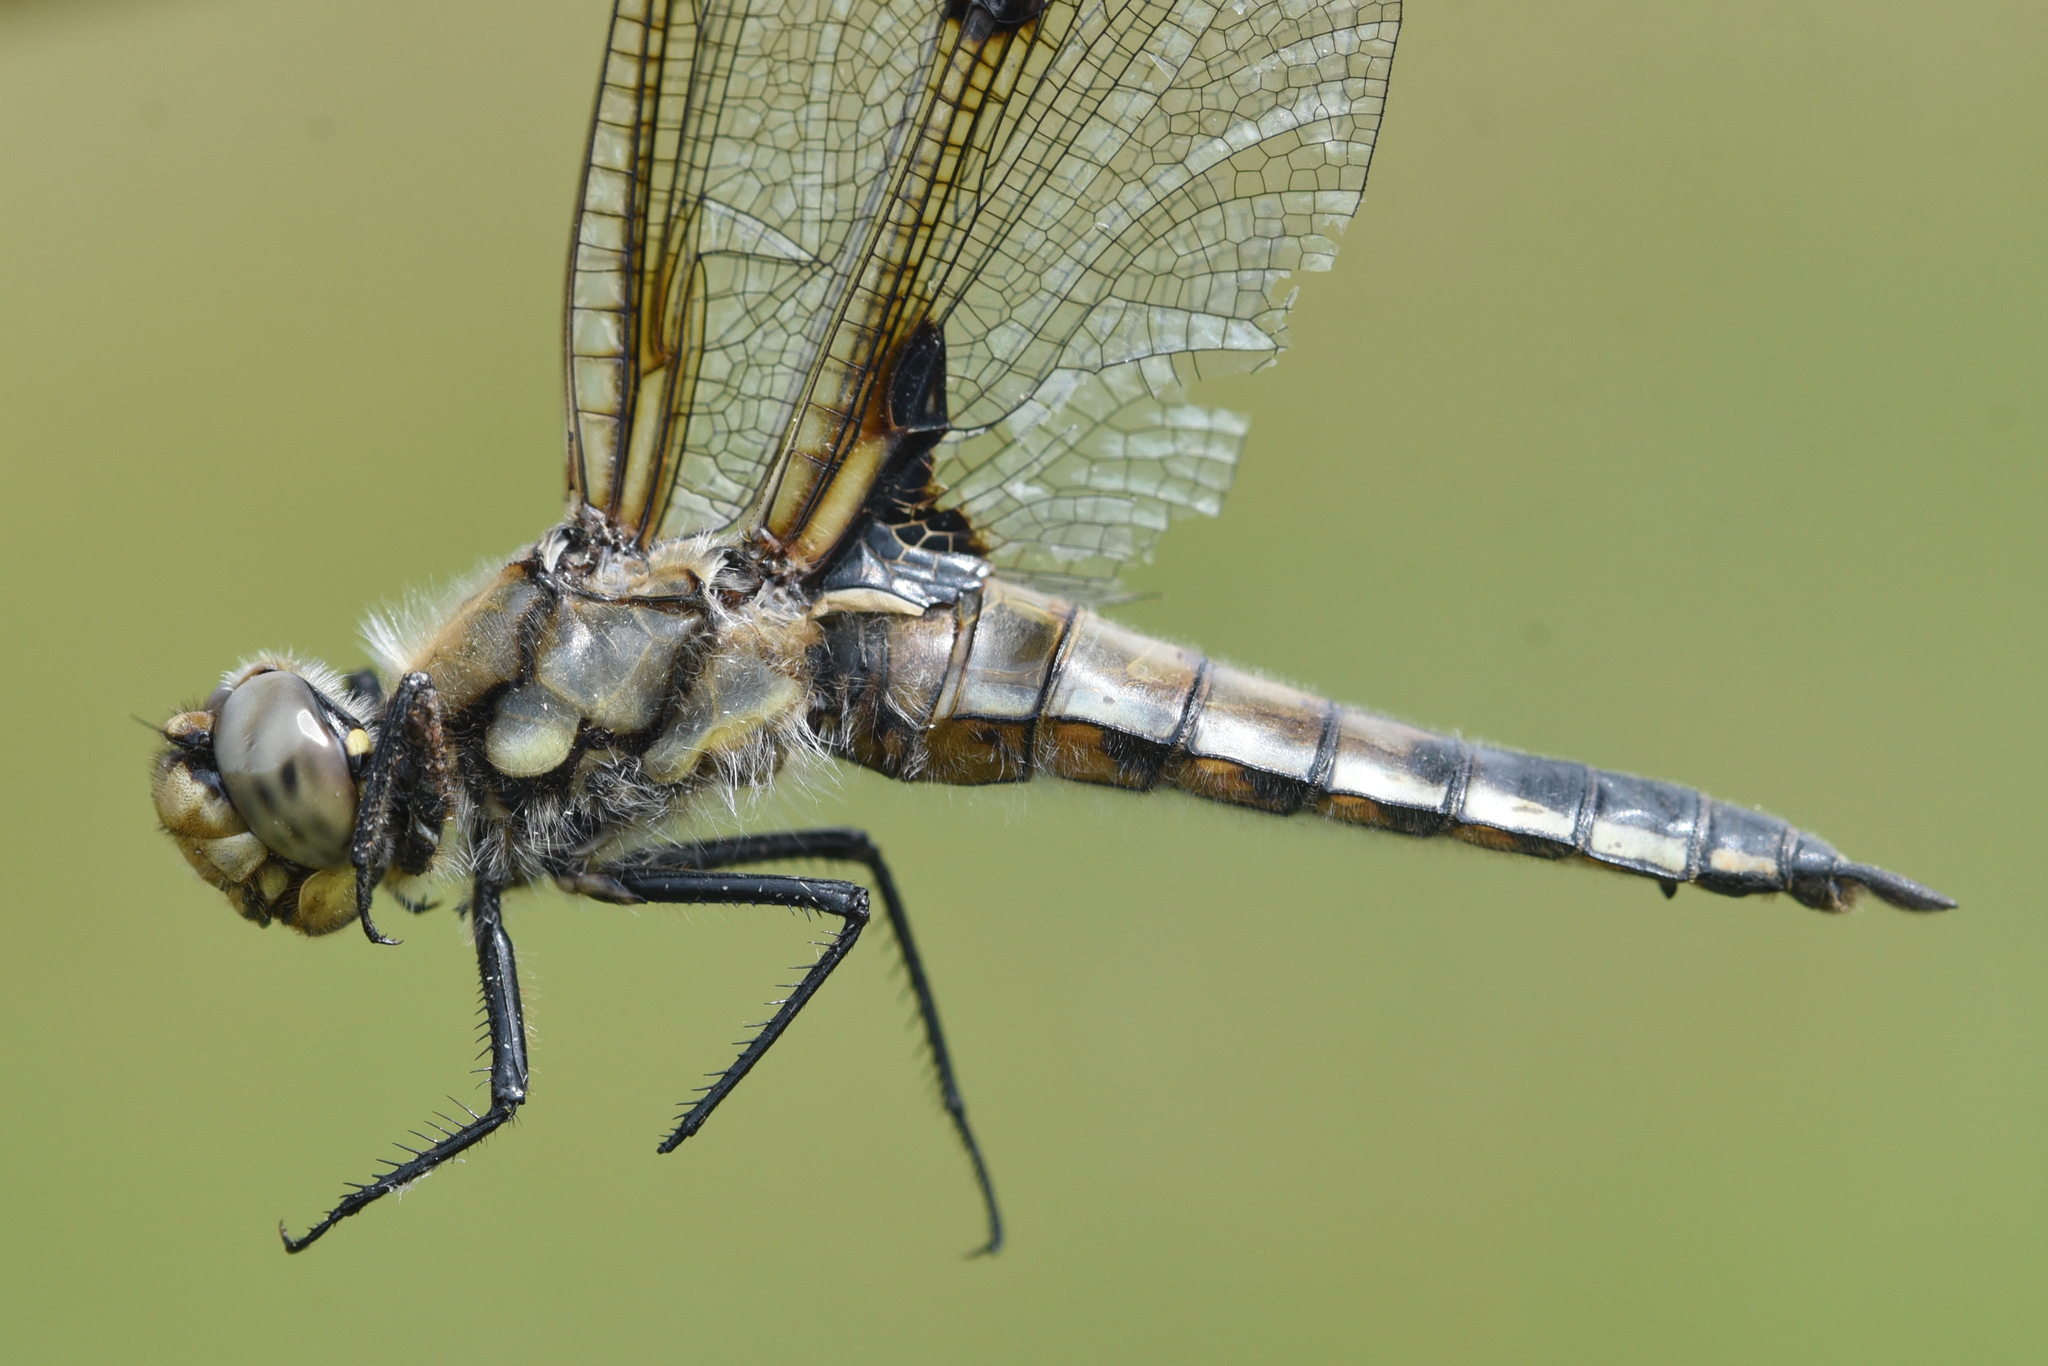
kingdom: Animalia
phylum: Arthropoda
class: Insecta
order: Odonata
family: Libellulidae
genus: Libellula
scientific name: Libellula quadrimaculata
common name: Four-spotted chaser
